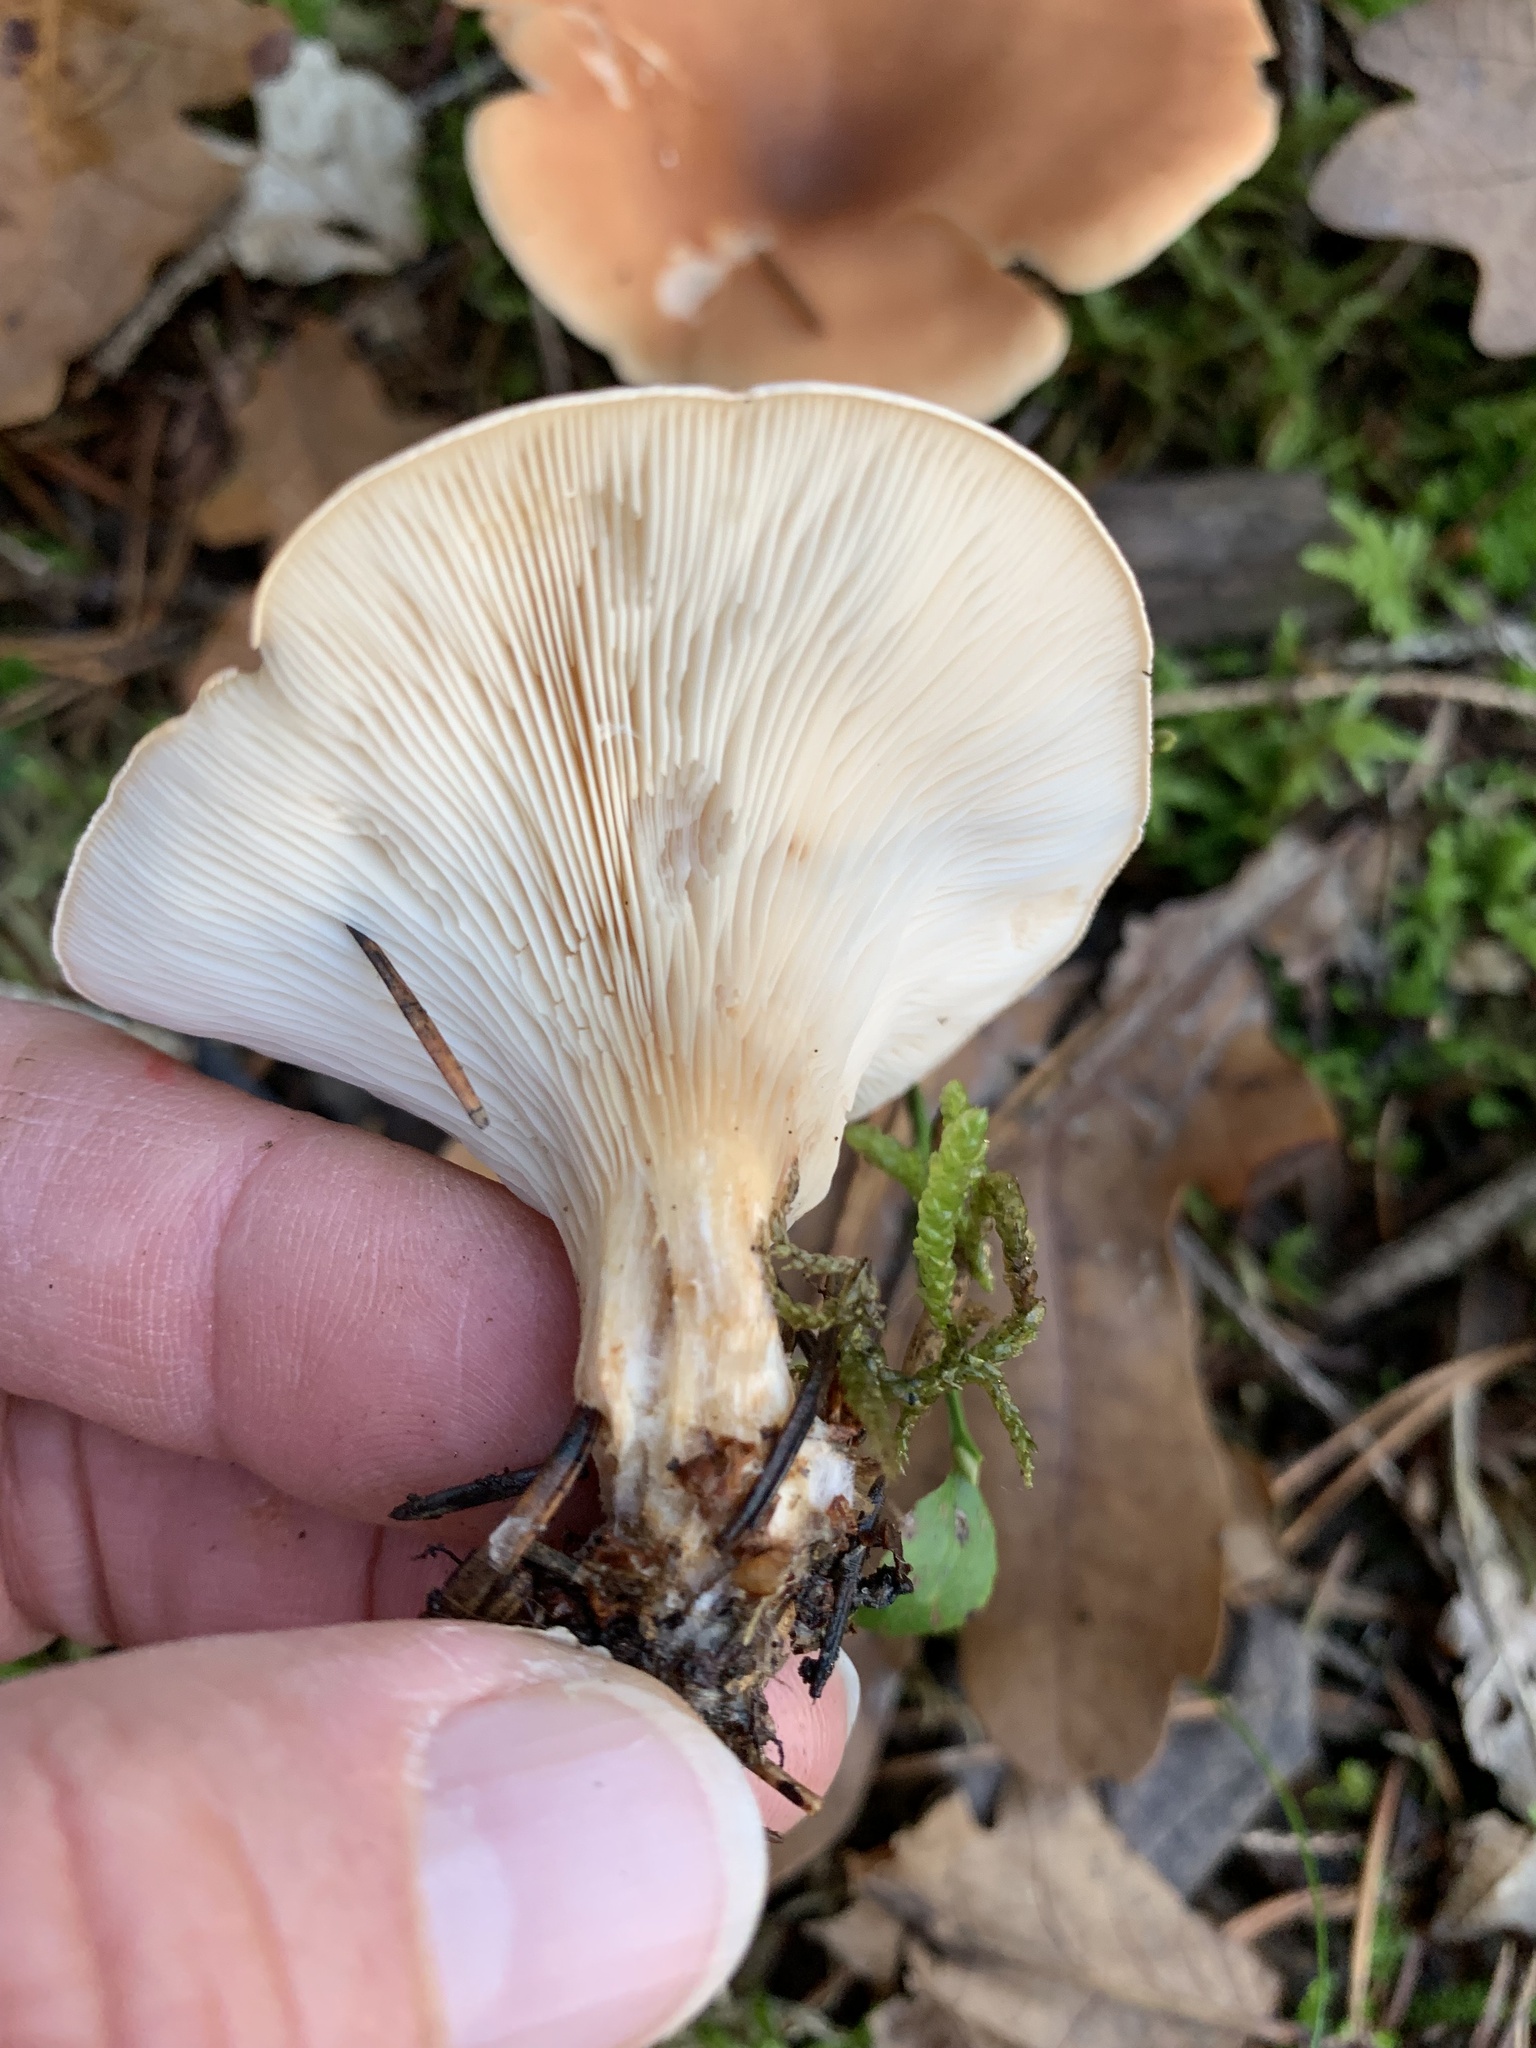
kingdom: Fungi
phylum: Basidiomycota
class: Agaricomycetes
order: Agaricales
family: Tricholomataceae
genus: Paralepista
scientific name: Paralepista flaccida
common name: Tawny funnel cap
